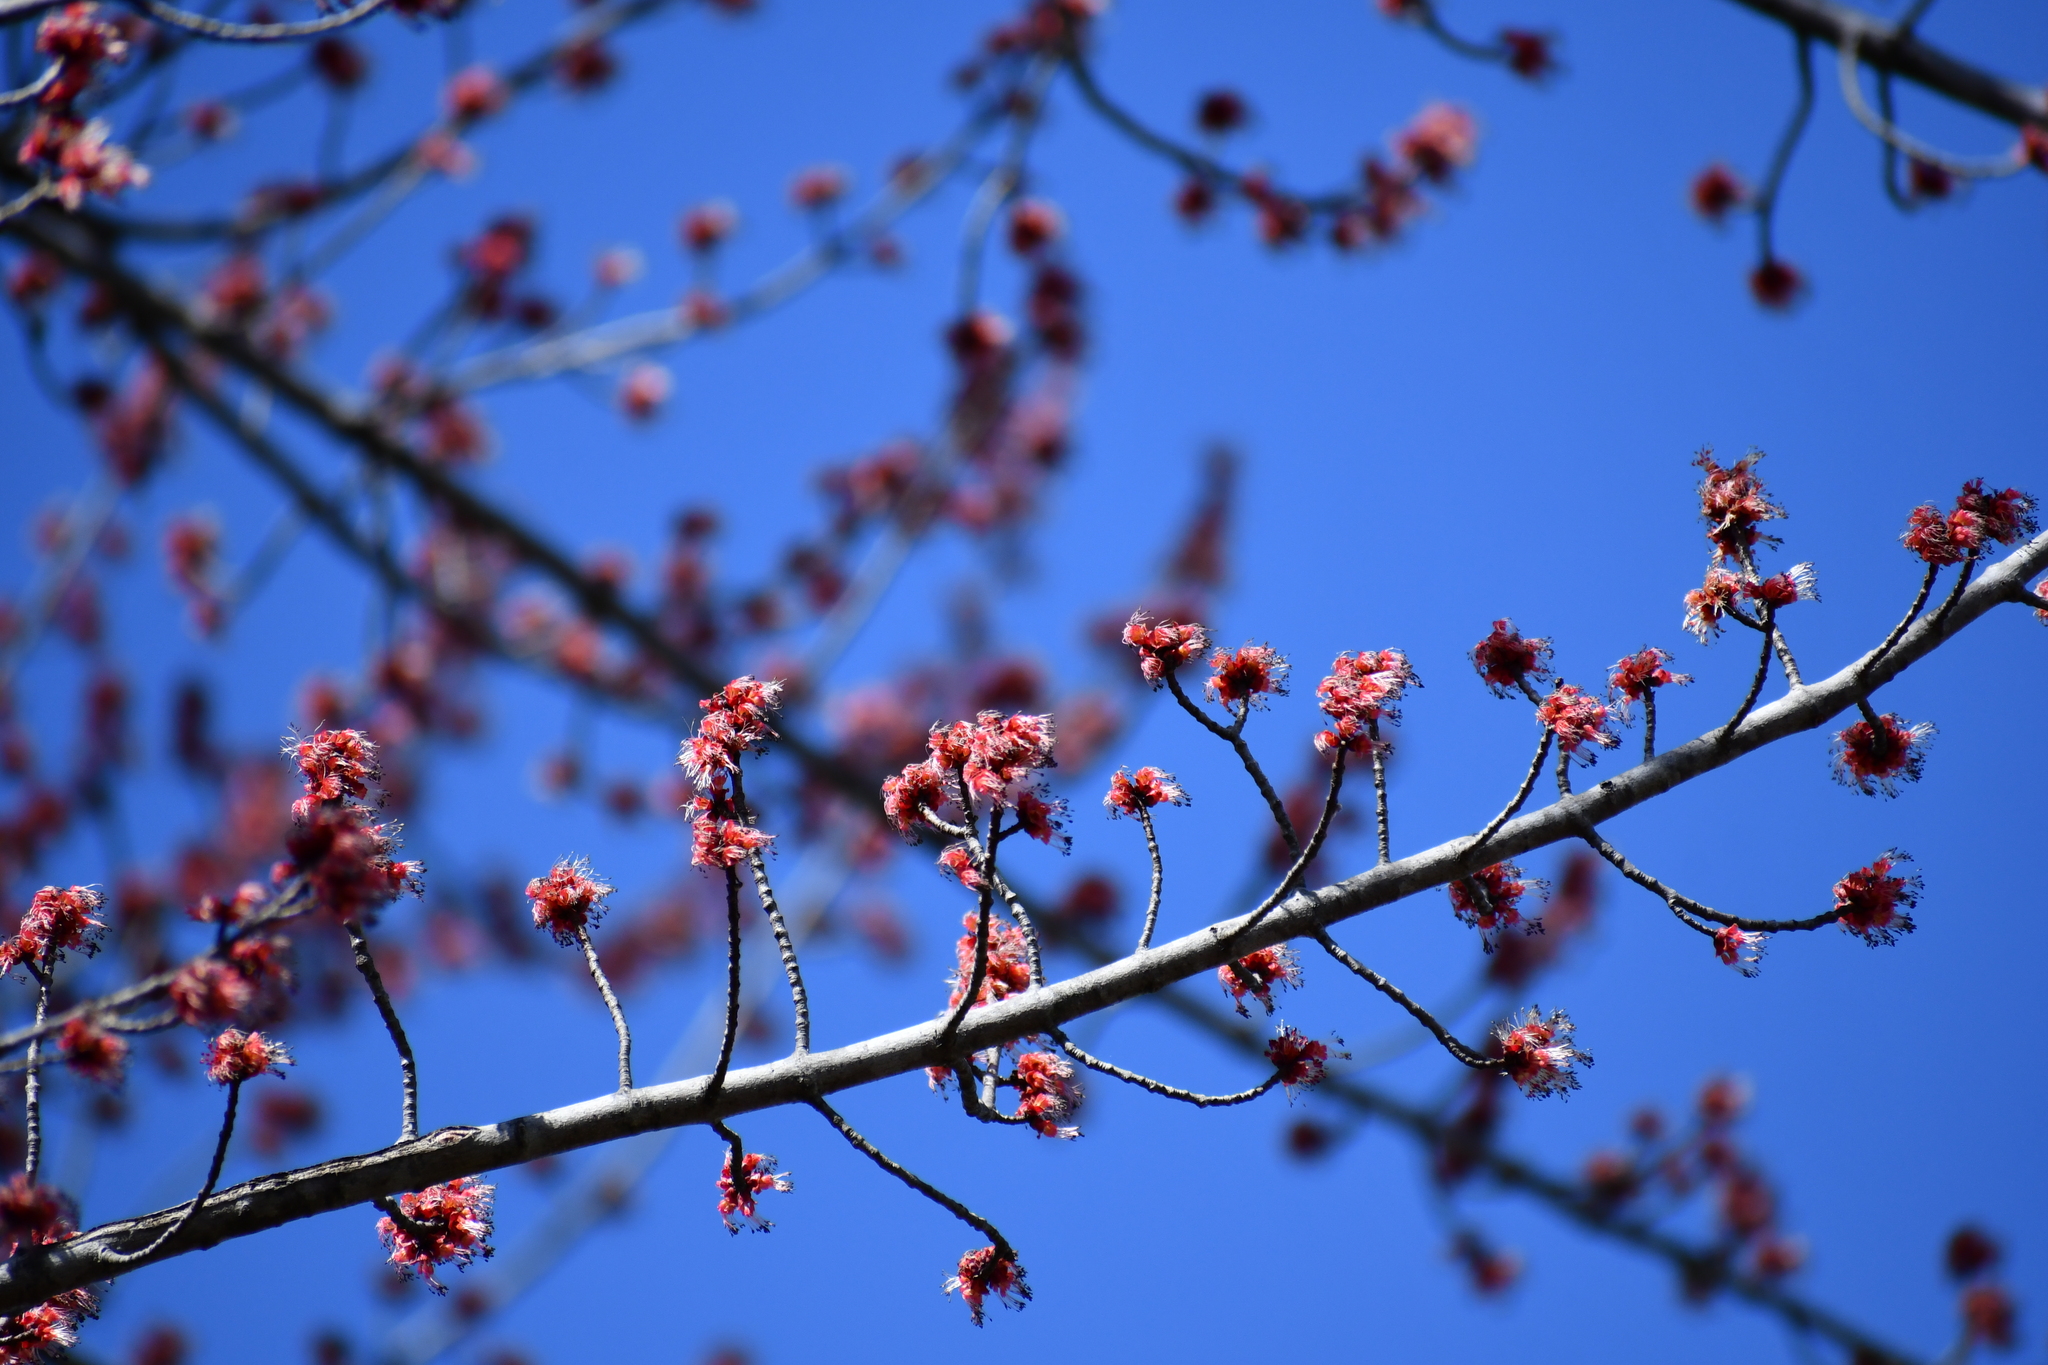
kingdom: Plantae
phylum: Tracheophyta
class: Magnoliopsida
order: Sapindales
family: Sapindaceae
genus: Acer
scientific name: Acer rubrum
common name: Red maple
